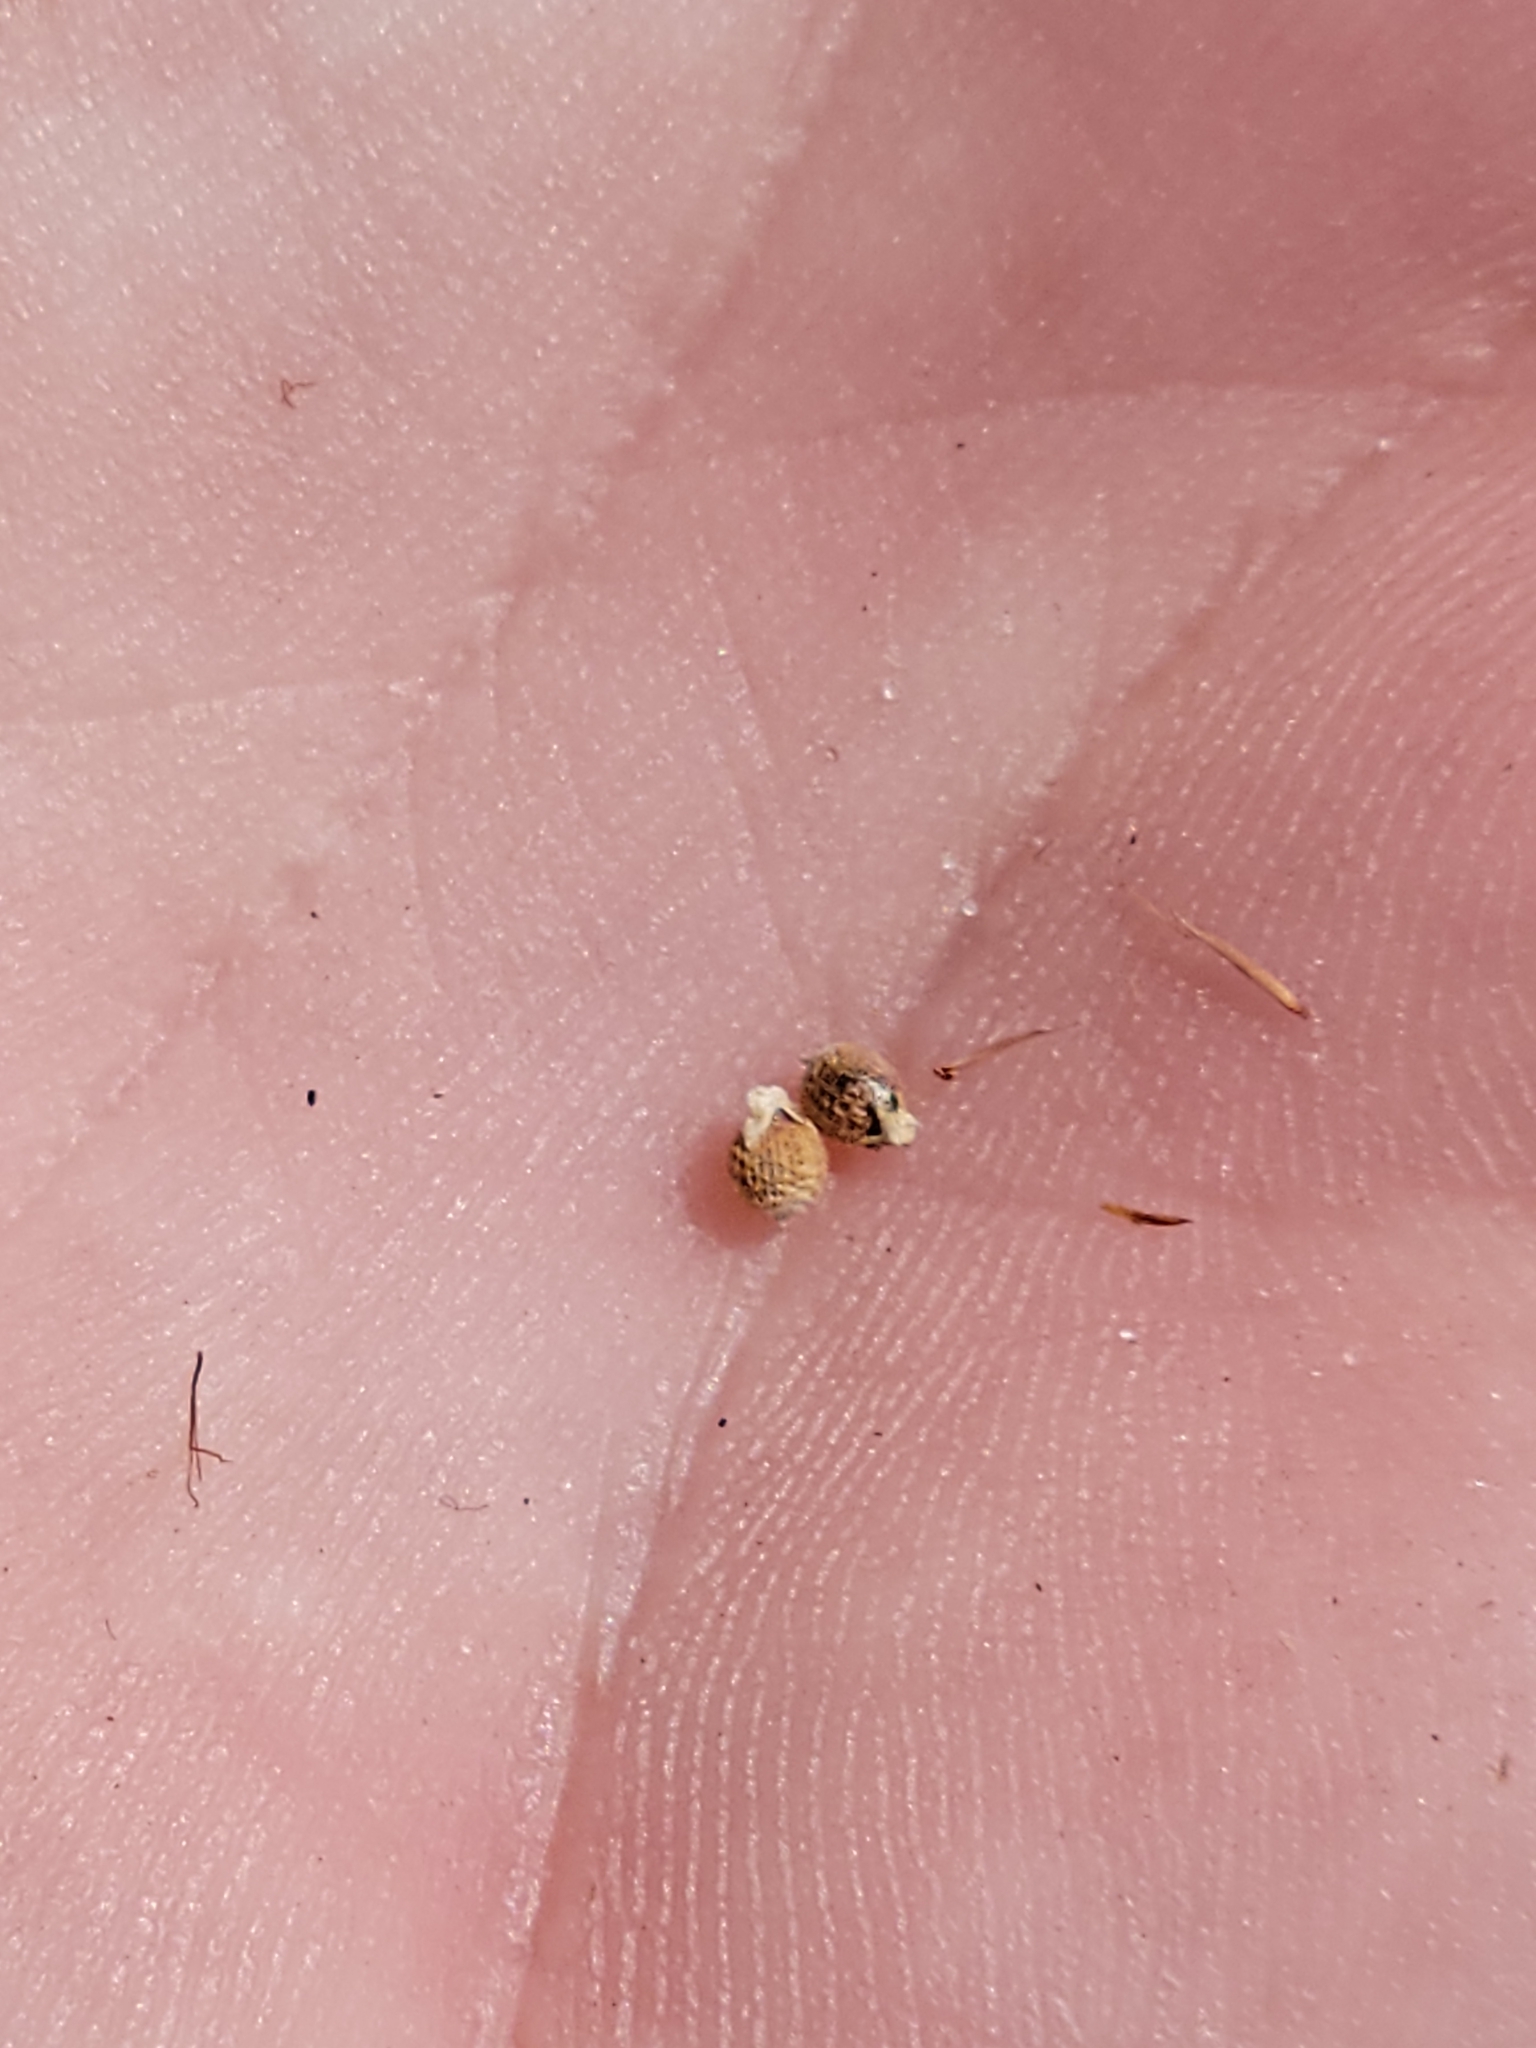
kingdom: Plantae
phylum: Tracheophyta
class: Liliopsida
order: Poales
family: Cyperaceae
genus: Scleria
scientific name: Scleria muehlenbergii
